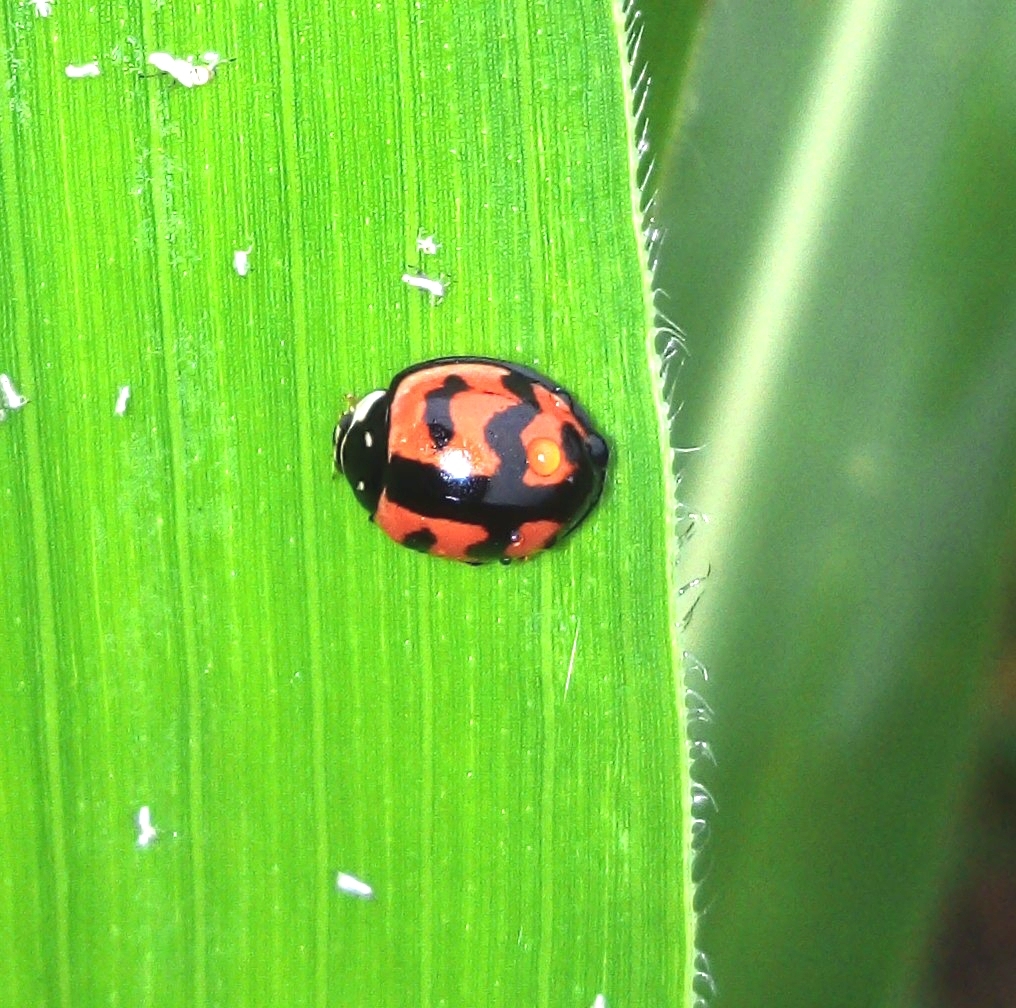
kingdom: Animalia
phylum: Arthropoda
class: Insecta
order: Coleoptera
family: Coccinellidae
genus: Cheilomenes
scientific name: Cheilomenes sexmaculata
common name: Ladybird beetle
